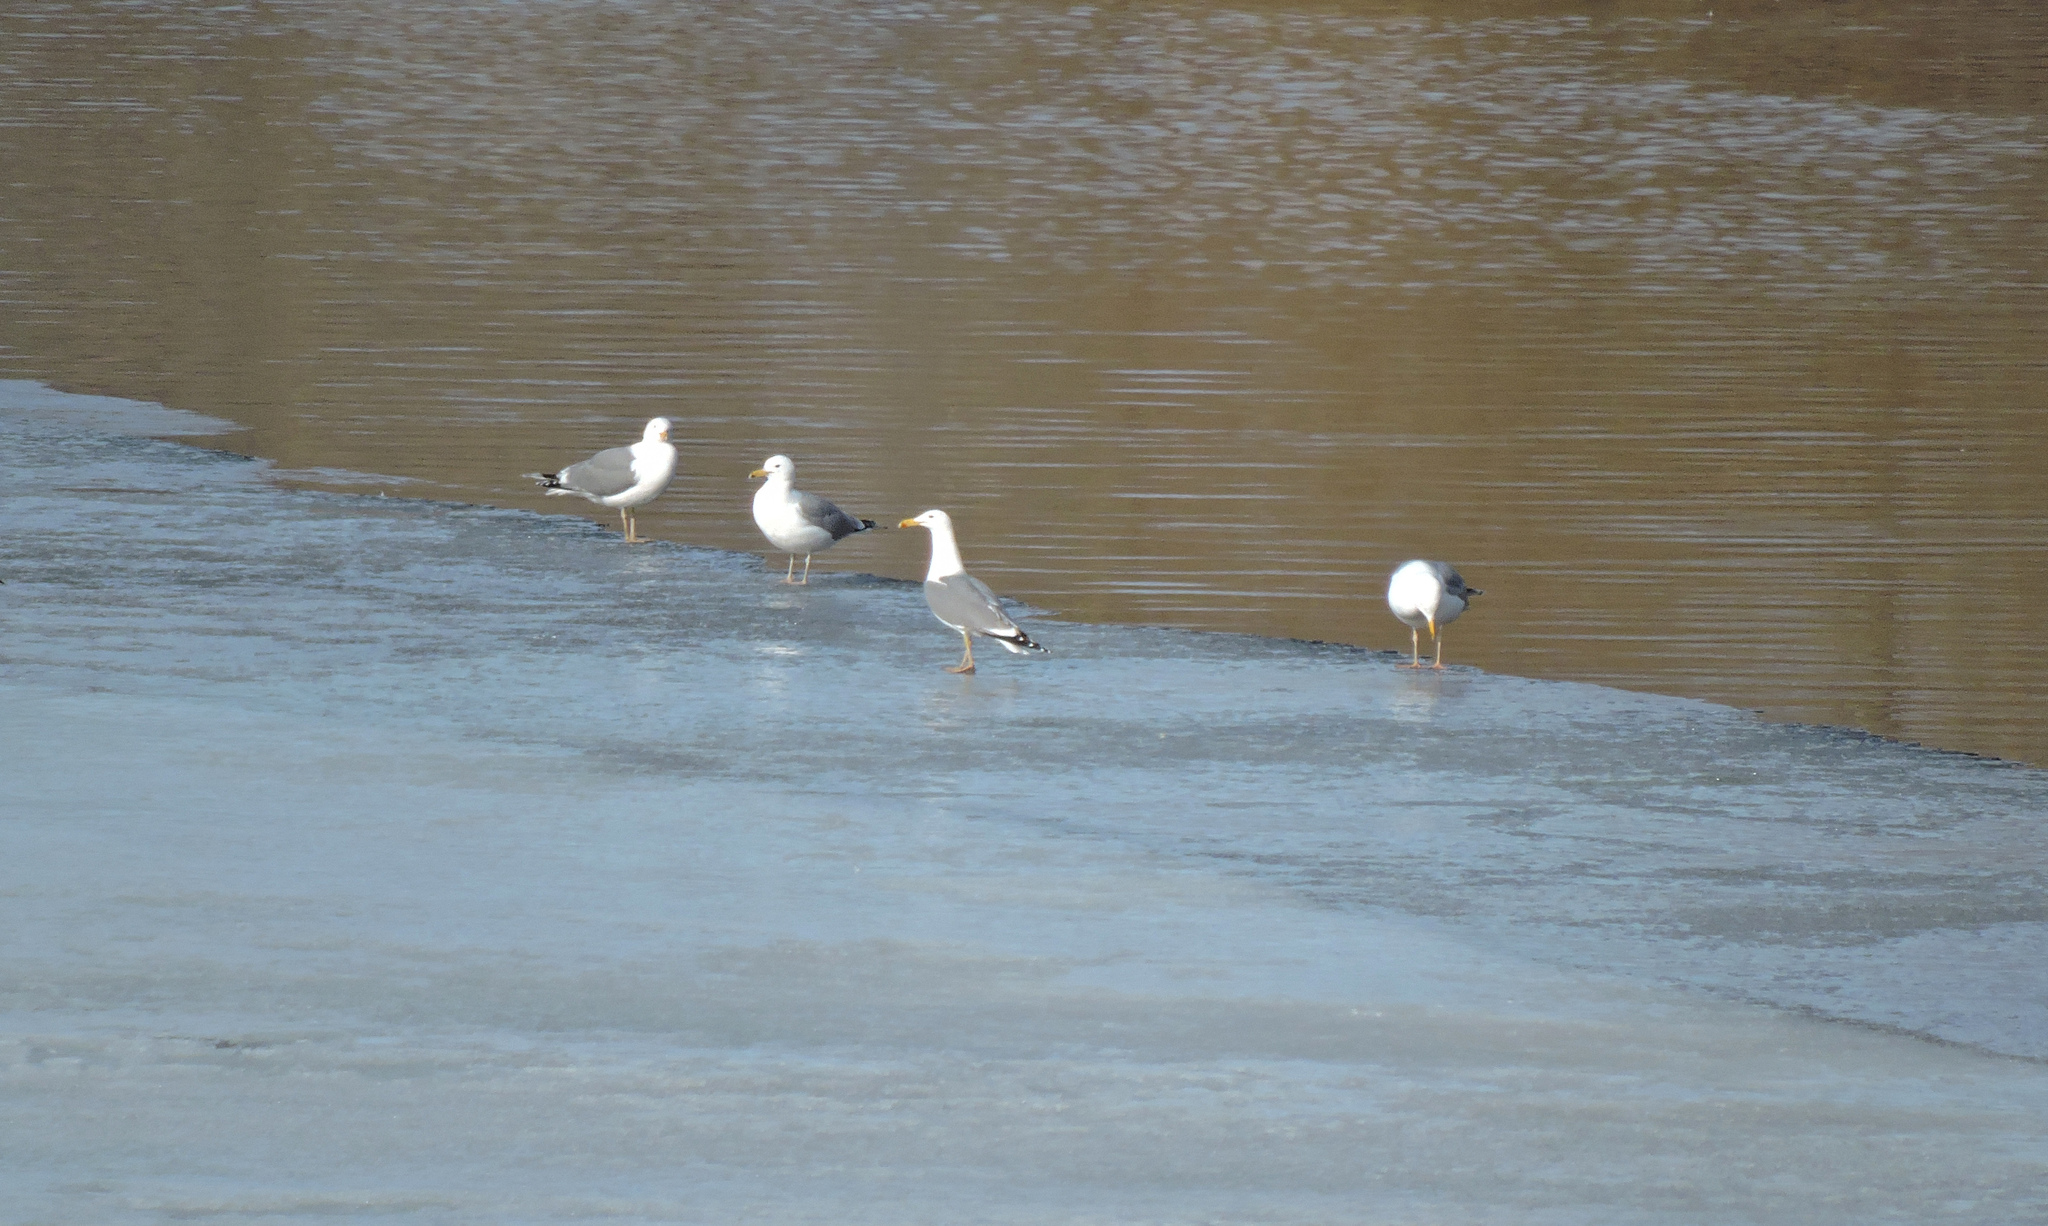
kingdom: Animalia
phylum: Chordata
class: Aves
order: Charadriiformes
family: Laridae
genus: Larus
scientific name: Larus cachinnans
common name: Caspian gull
